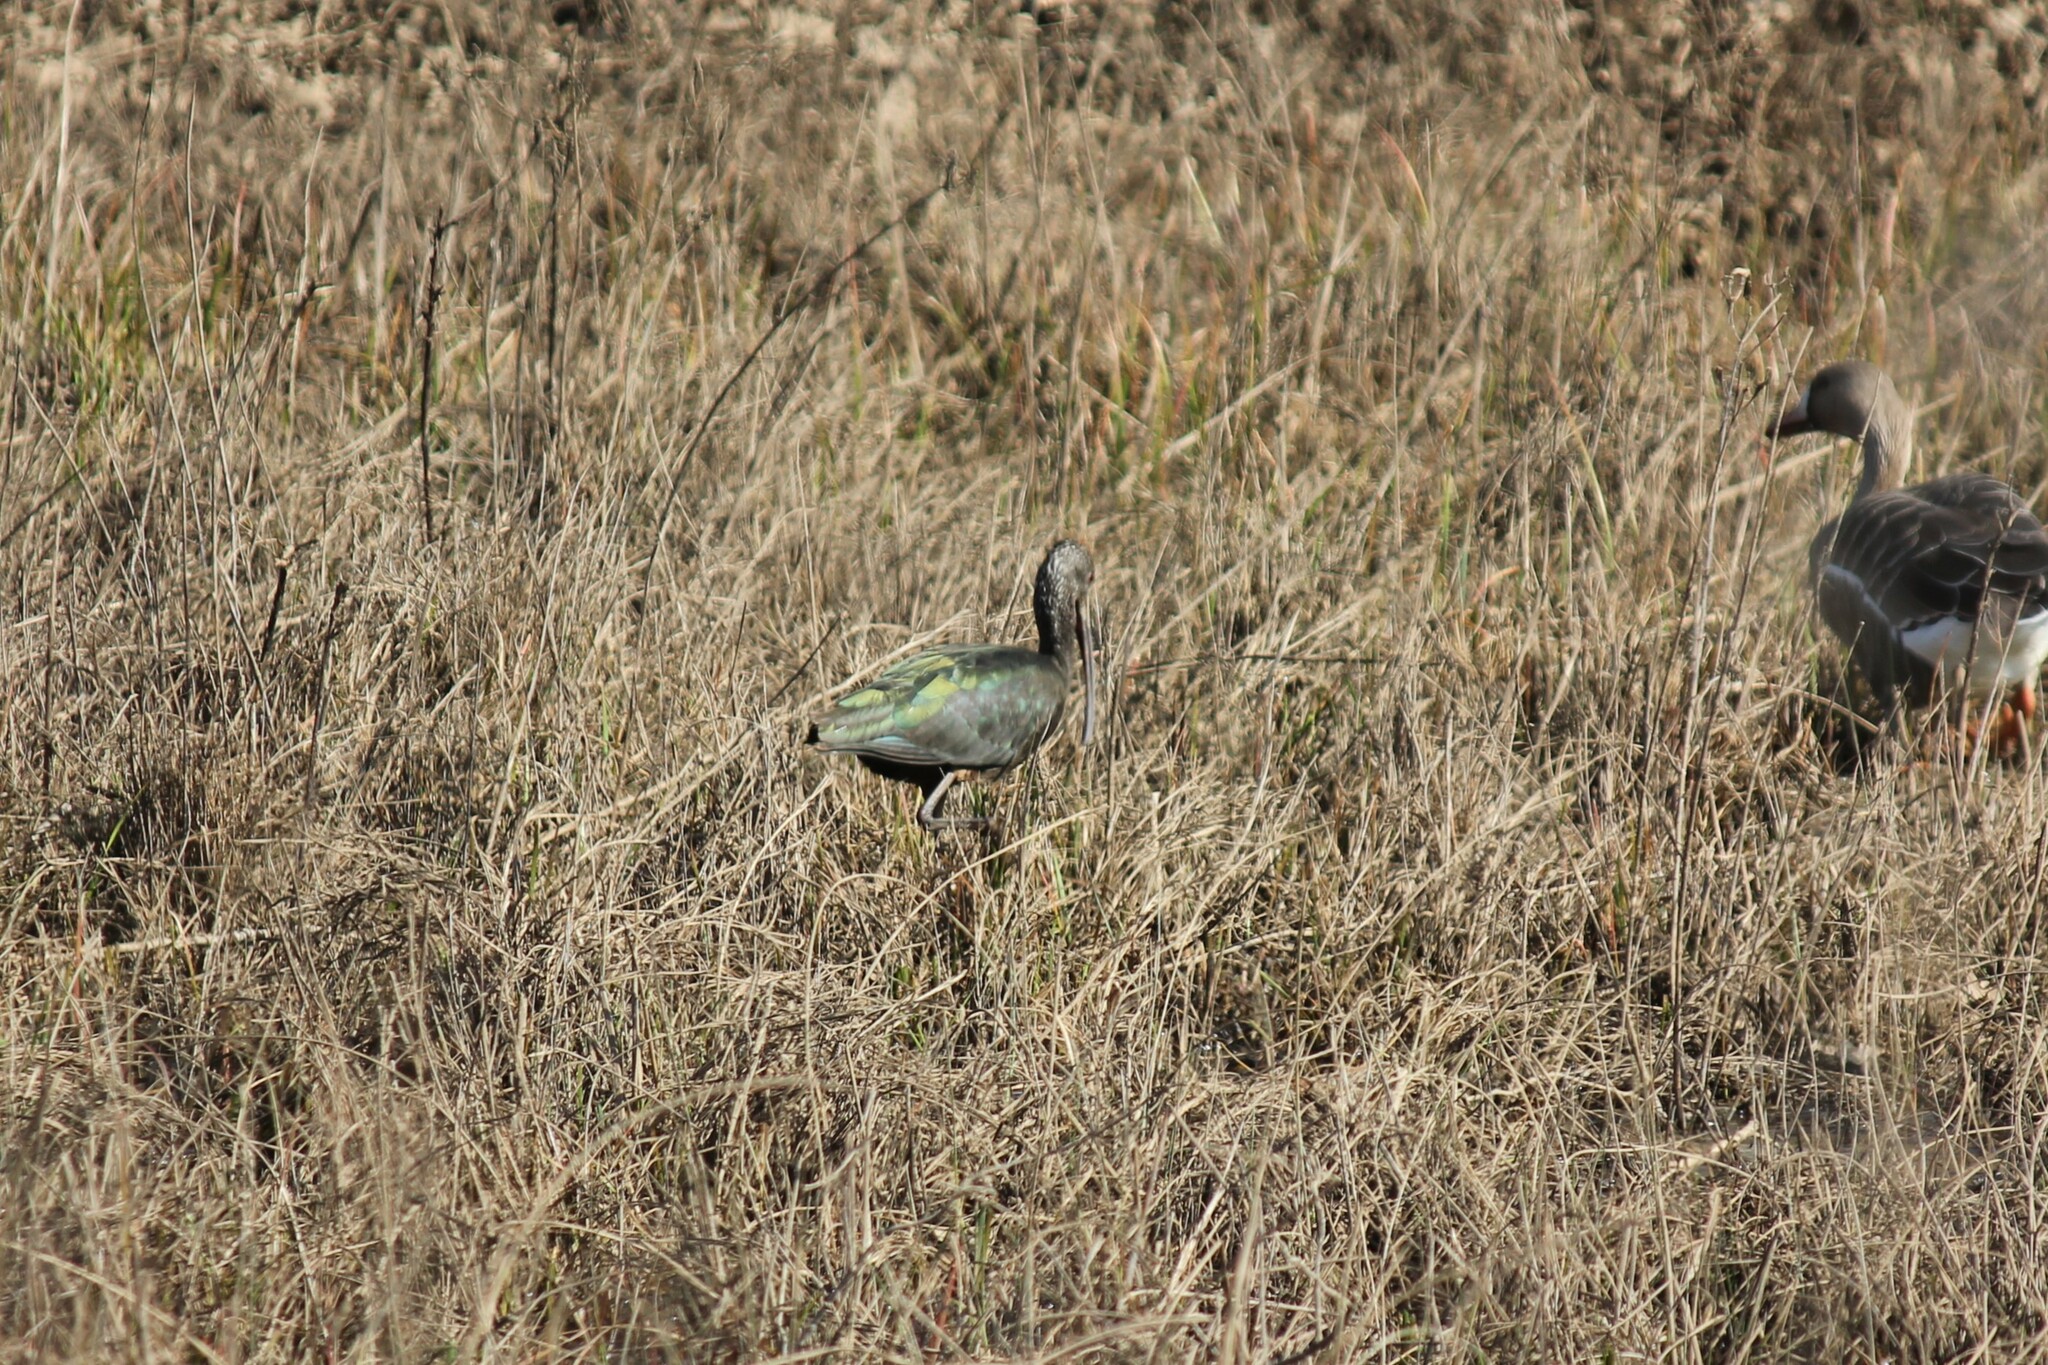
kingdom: Animalia
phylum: Chordata
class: Aves
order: Pelecaniformes
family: Threskiornithidae
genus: Plegadis
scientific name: Plegadis chihi
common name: White-faced ibis
